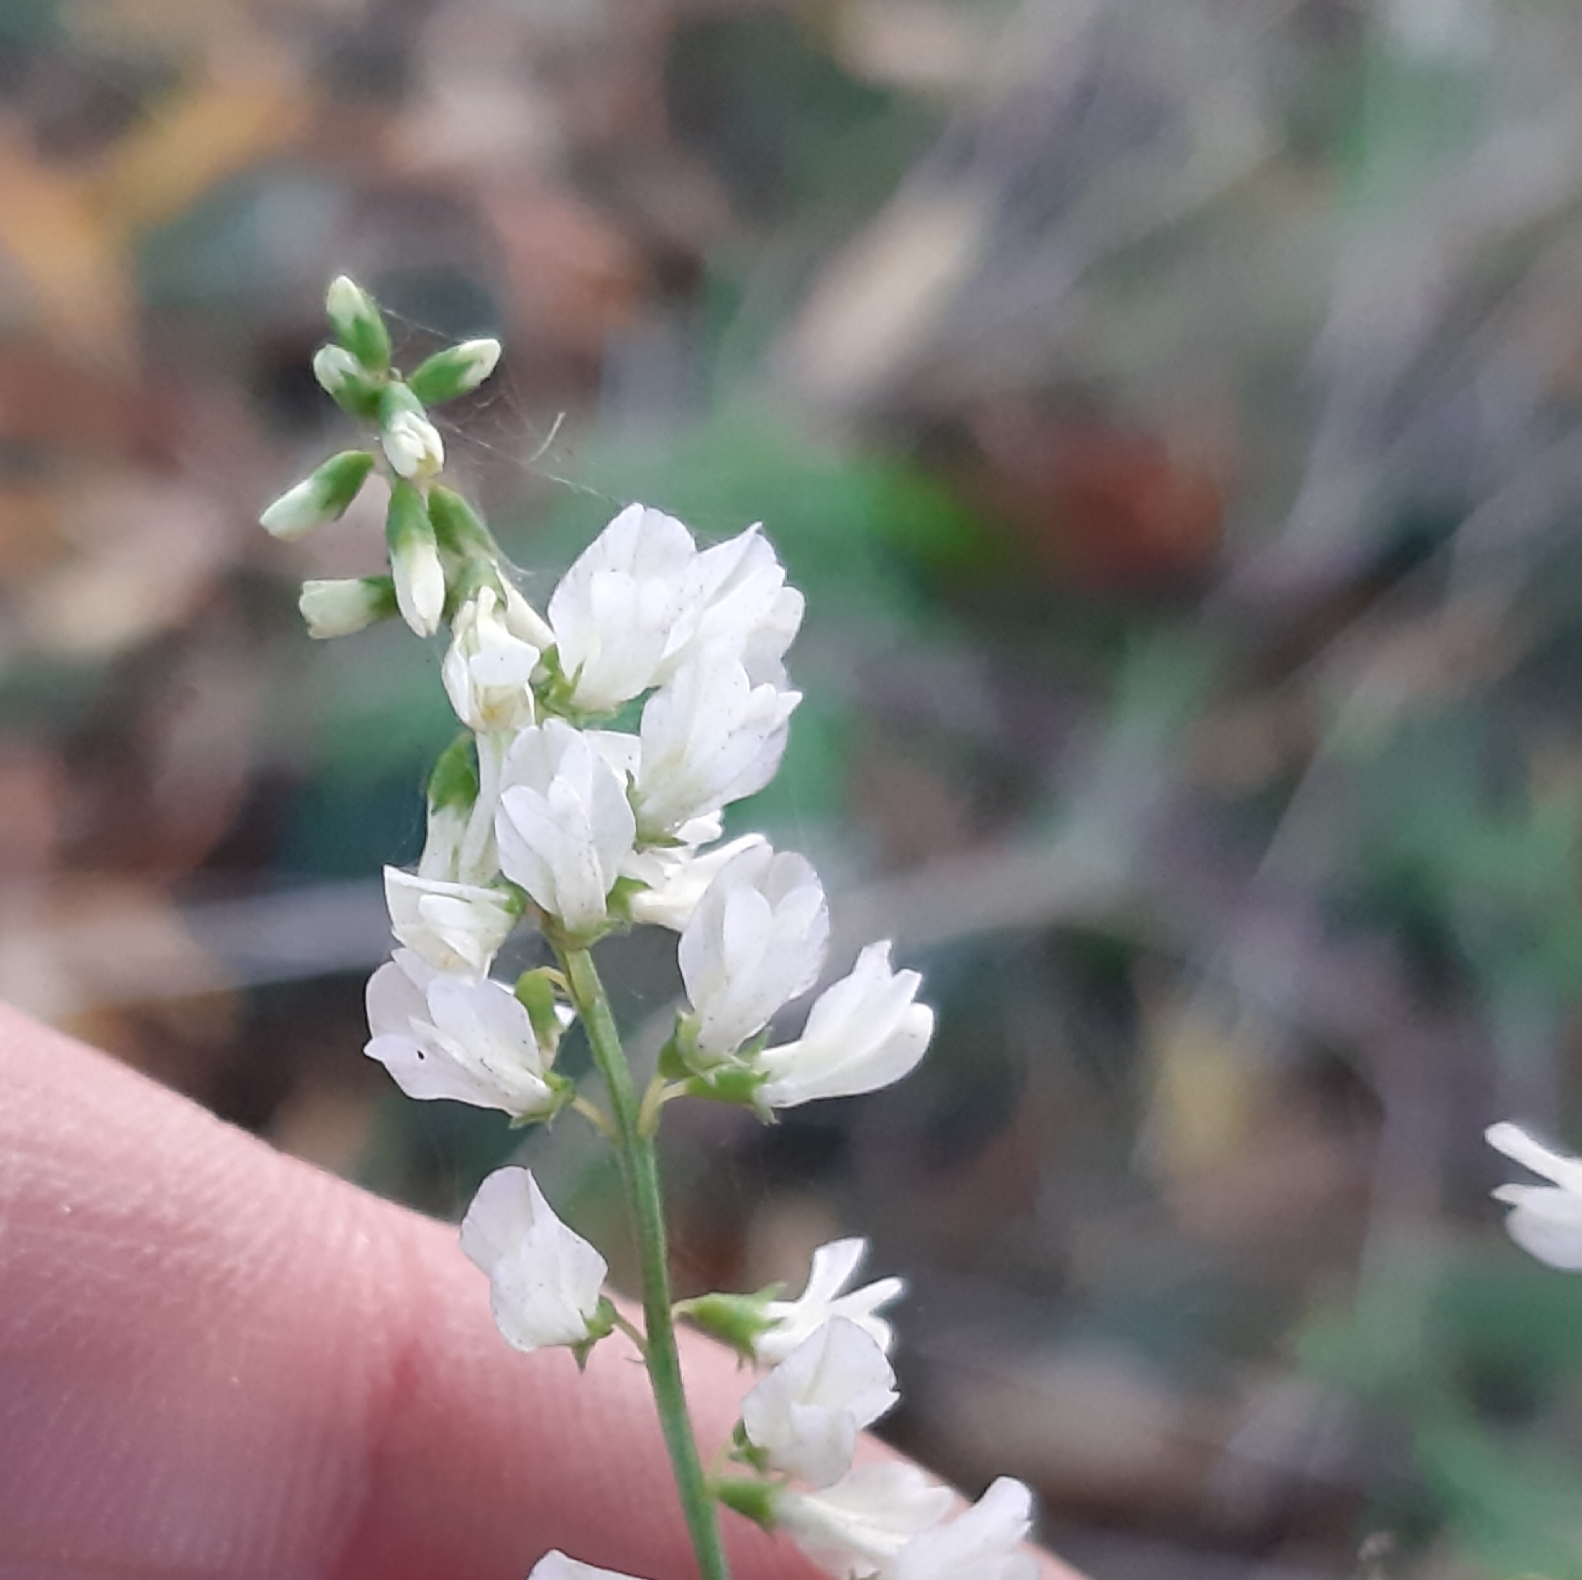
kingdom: Plantae
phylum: Tracheophyta
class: Magnoliopsida
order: Fabales
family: Fabaceae
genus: Melilotus
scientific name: Melilotus albus
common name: White melilot
